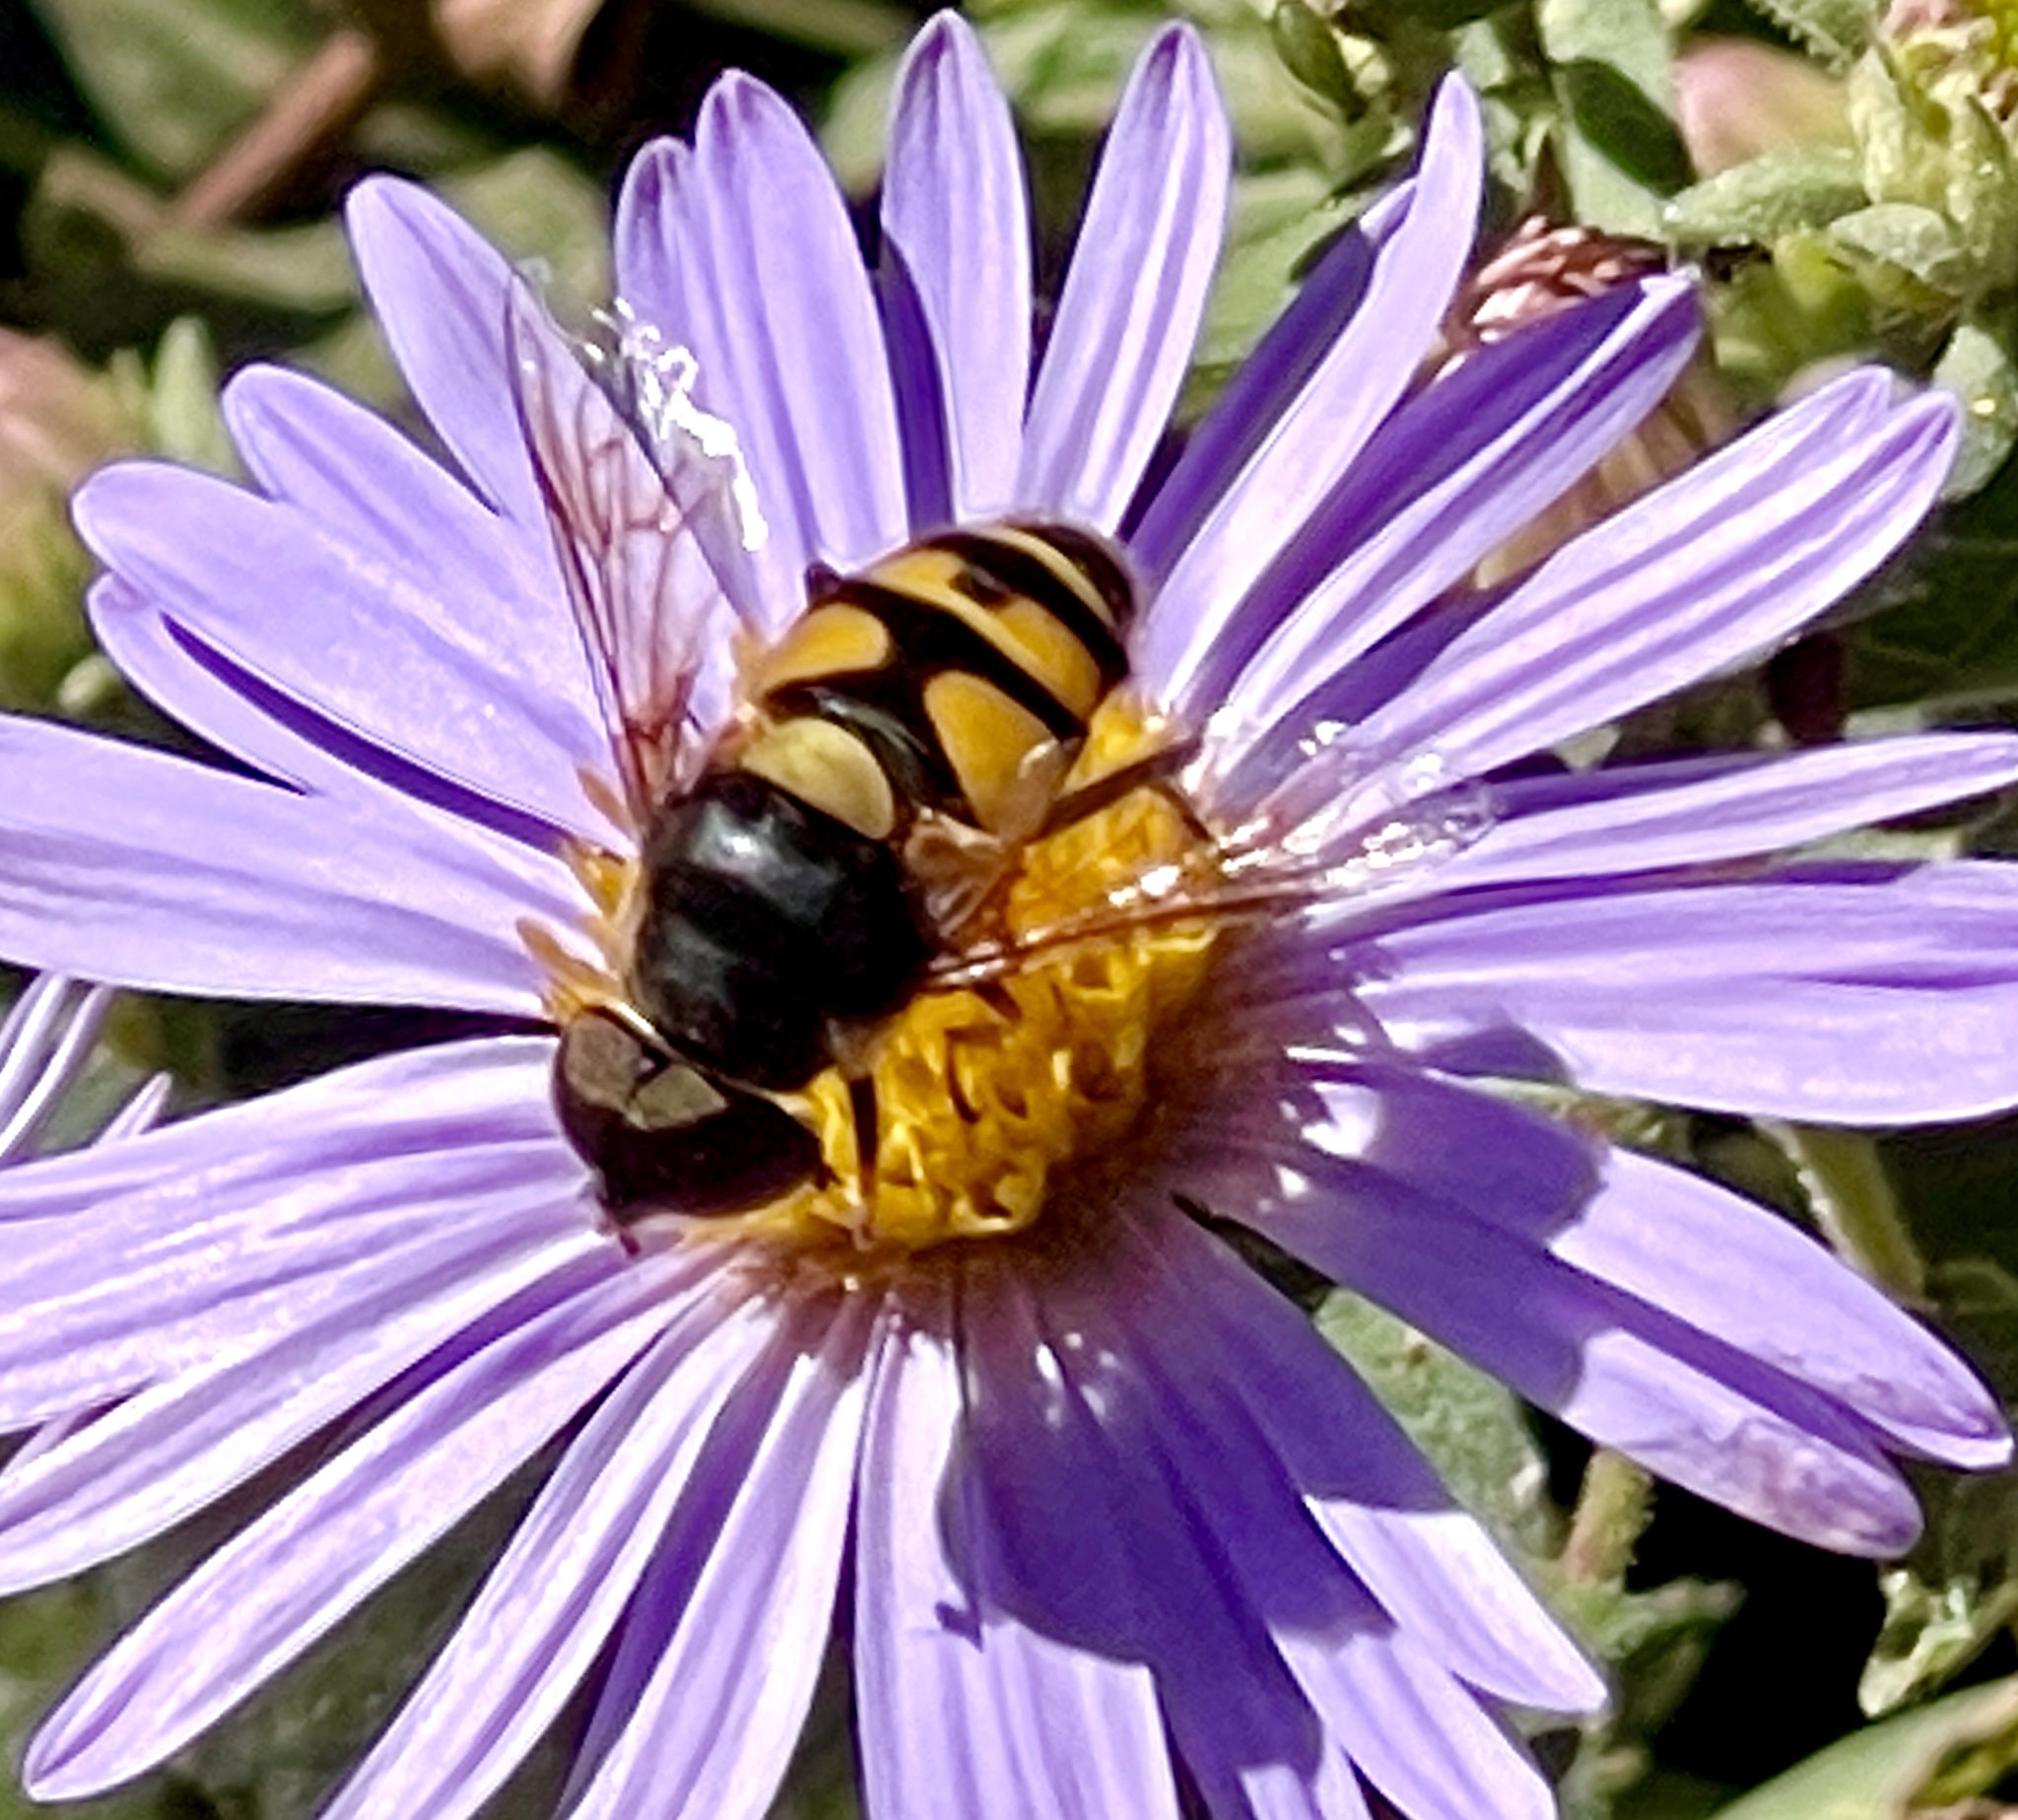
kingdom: Animalia
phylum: Arthropoda
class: Insecta
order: Diptera
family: Syrphidae
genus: Eristalis
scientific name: Eristalis transversa
